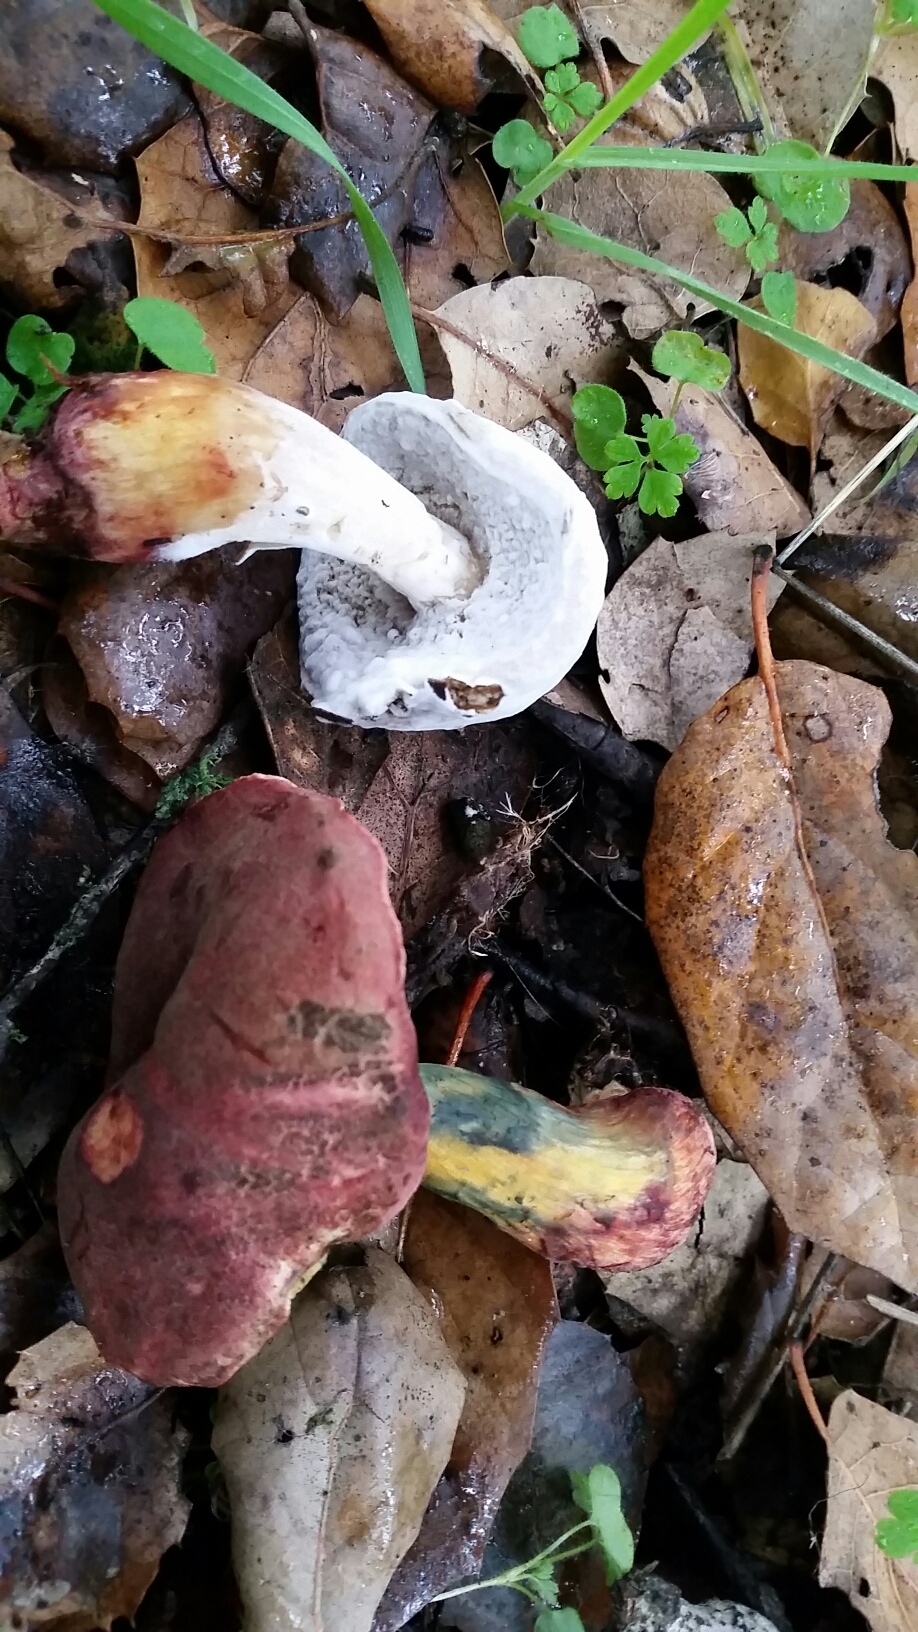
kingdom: Fungi
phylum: Basidiomycota
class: Agaricomycetes
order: Boletales
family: Boletaceae
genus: Xerocomellus
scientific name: Xerocomellus dryophilus
